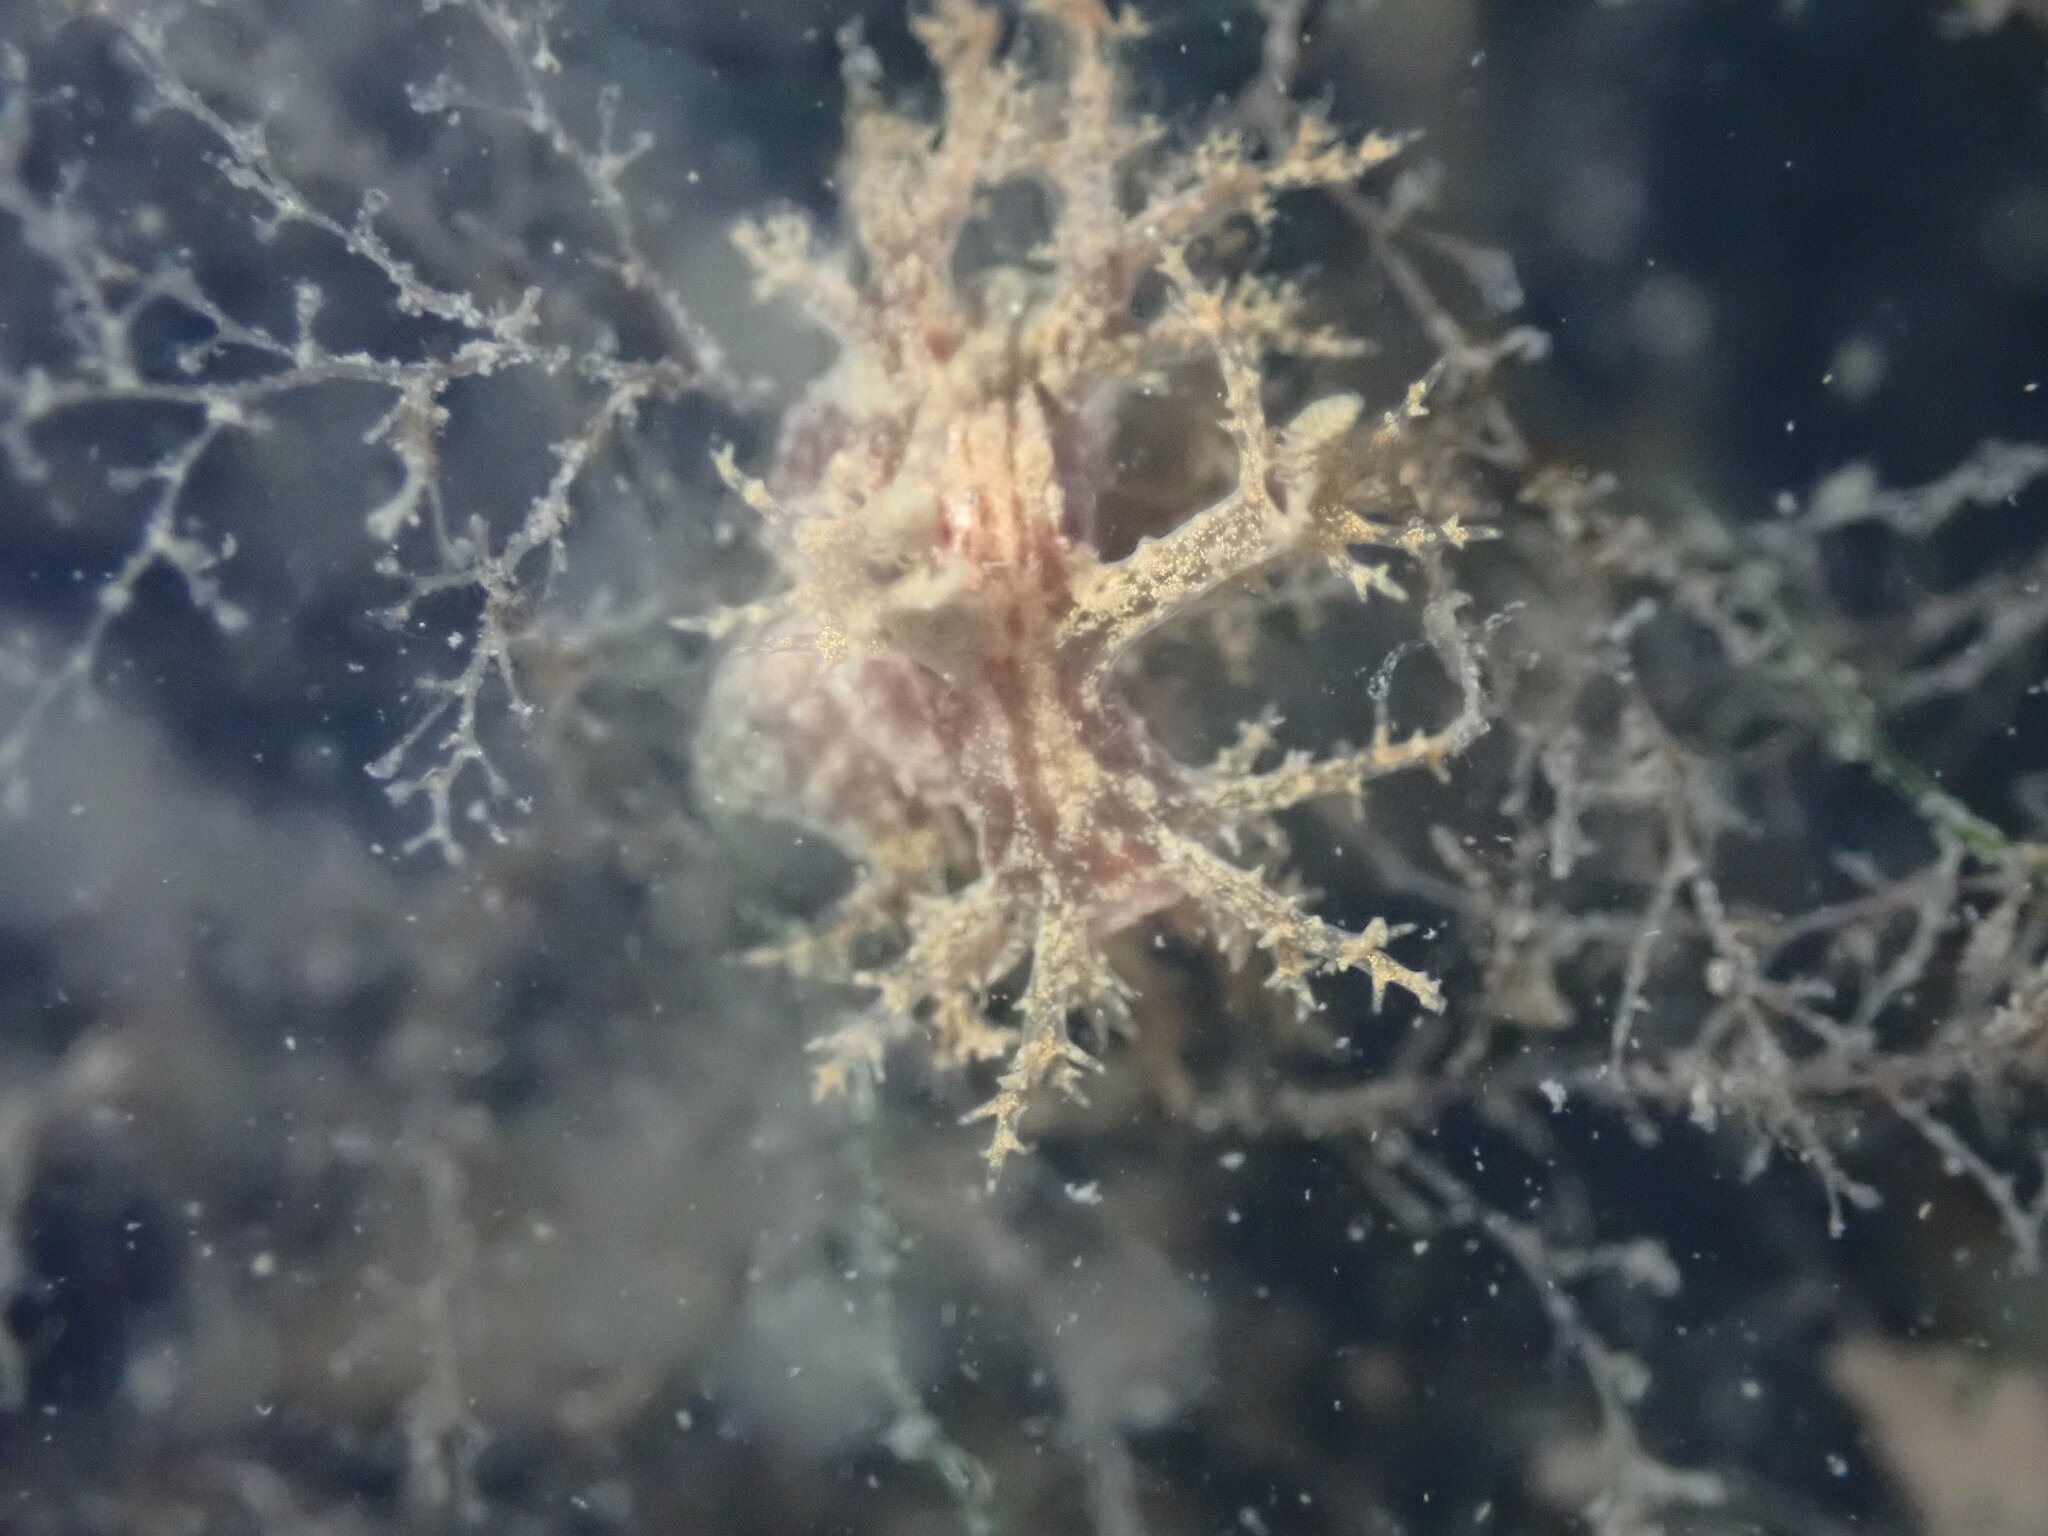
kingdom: Animalia
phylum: Mollusca
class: Gastropoda
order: Nudibranchia
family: Dendronotidae
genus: Dendronotus
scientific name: Dendronotus venustus
